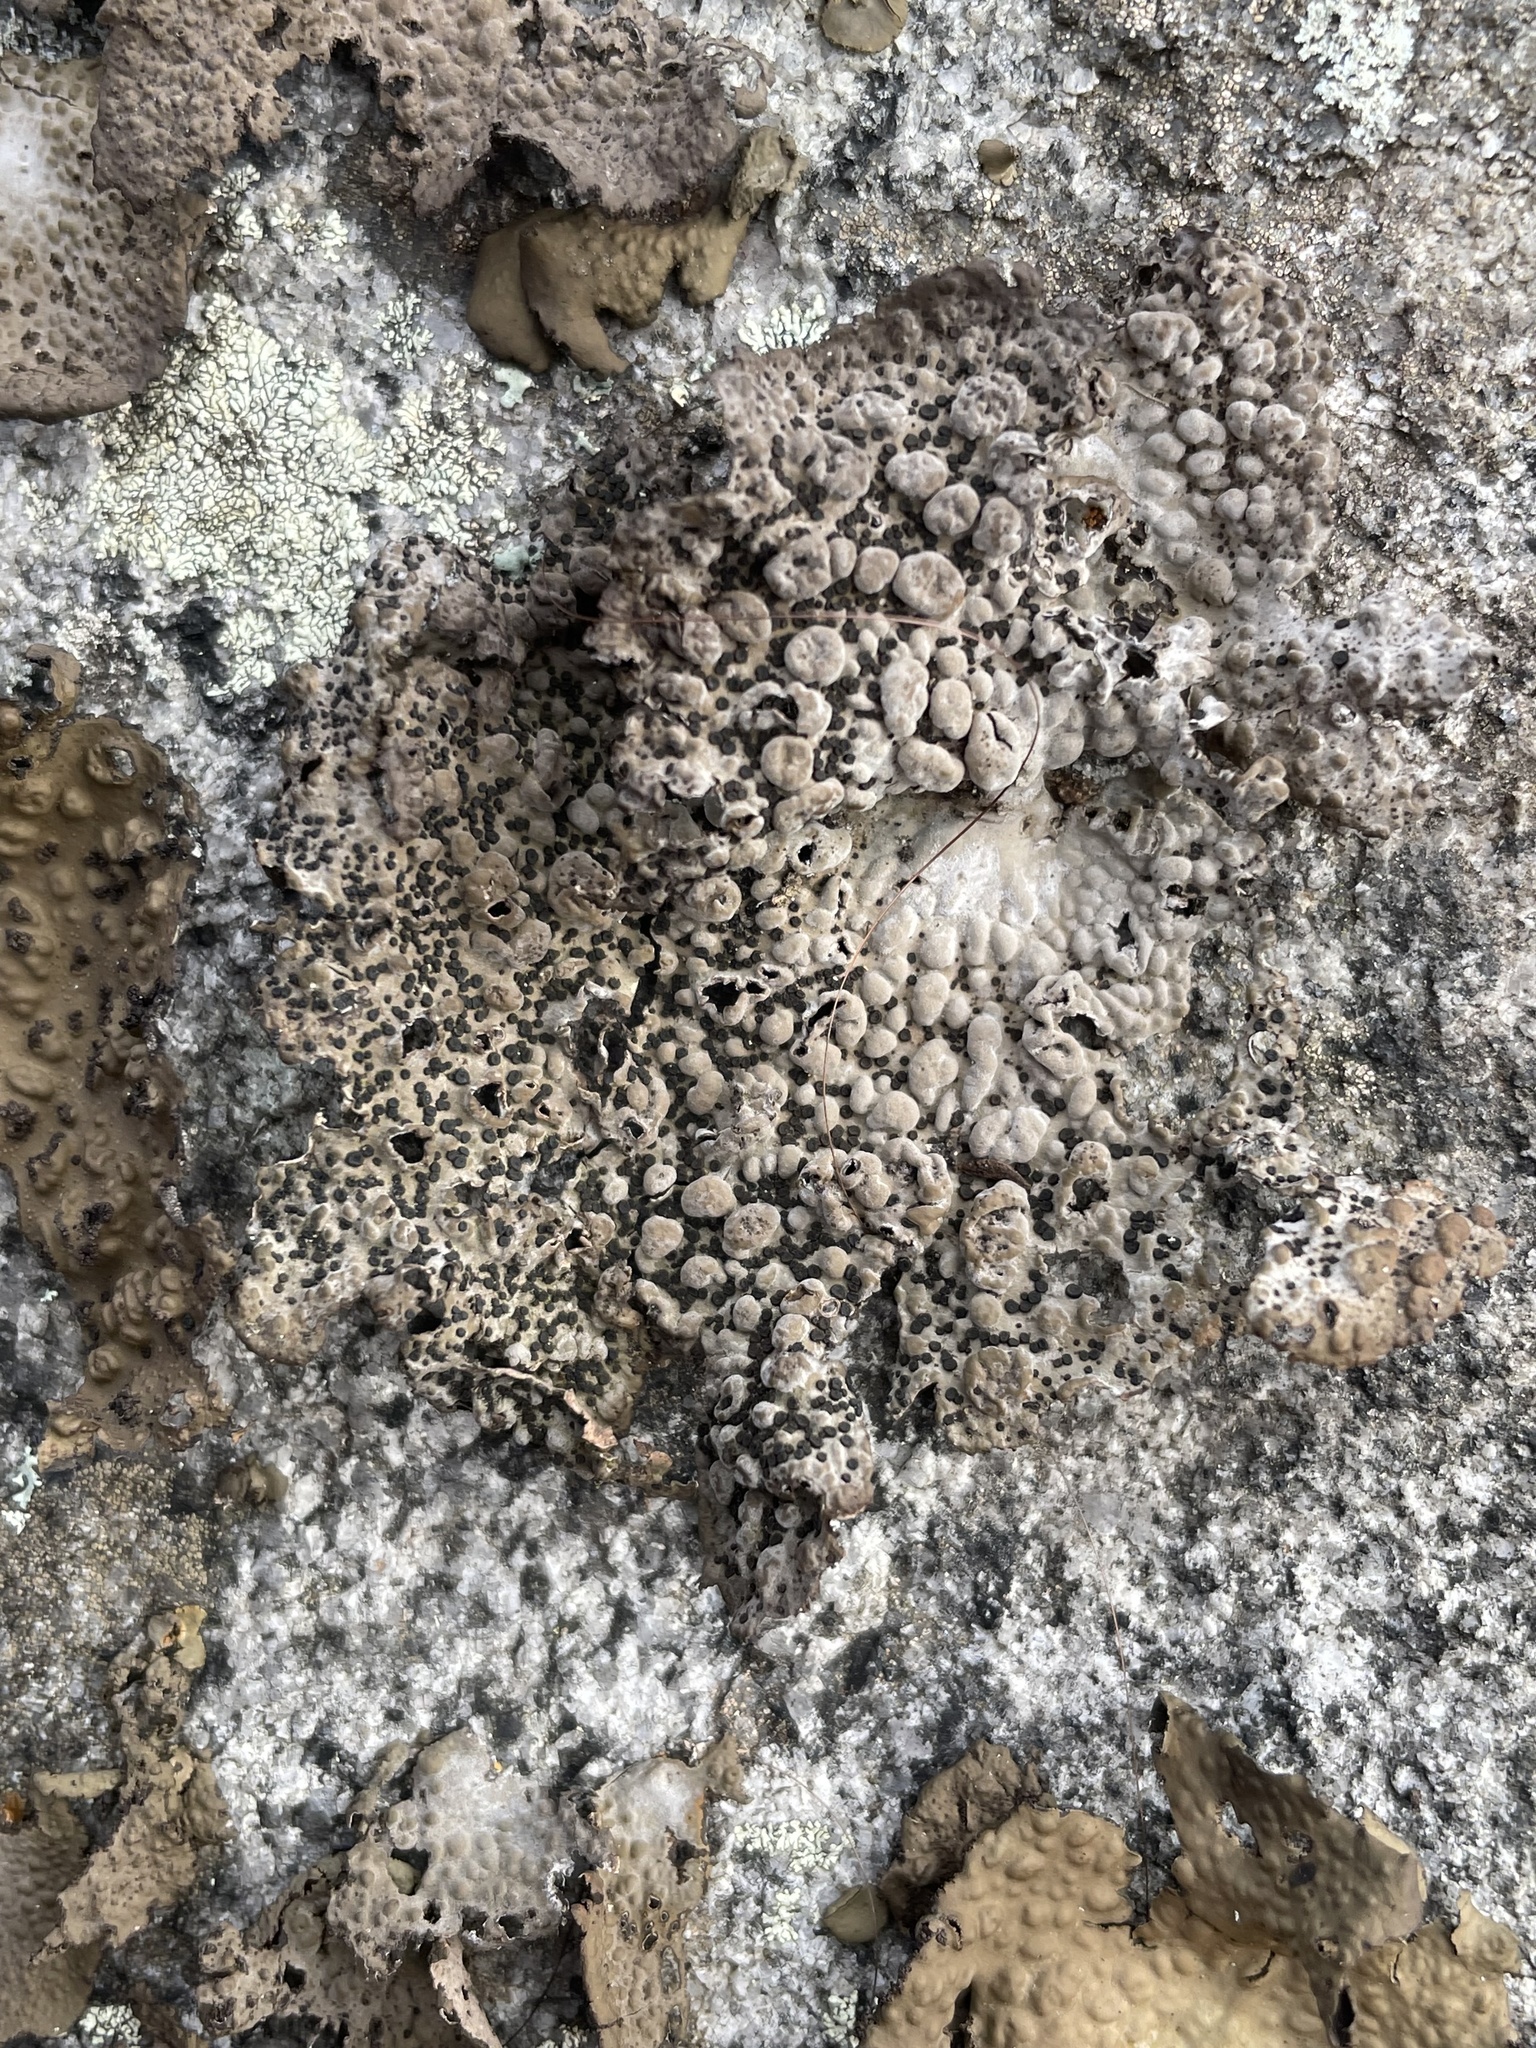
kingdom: Fungi
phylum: Ascomycota
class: Lecanoromycetes
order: Umbilicariales
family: Umbilicariaceae
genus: Lasallia
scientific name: Lasallia papulosa
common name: Common toadskin lichen
